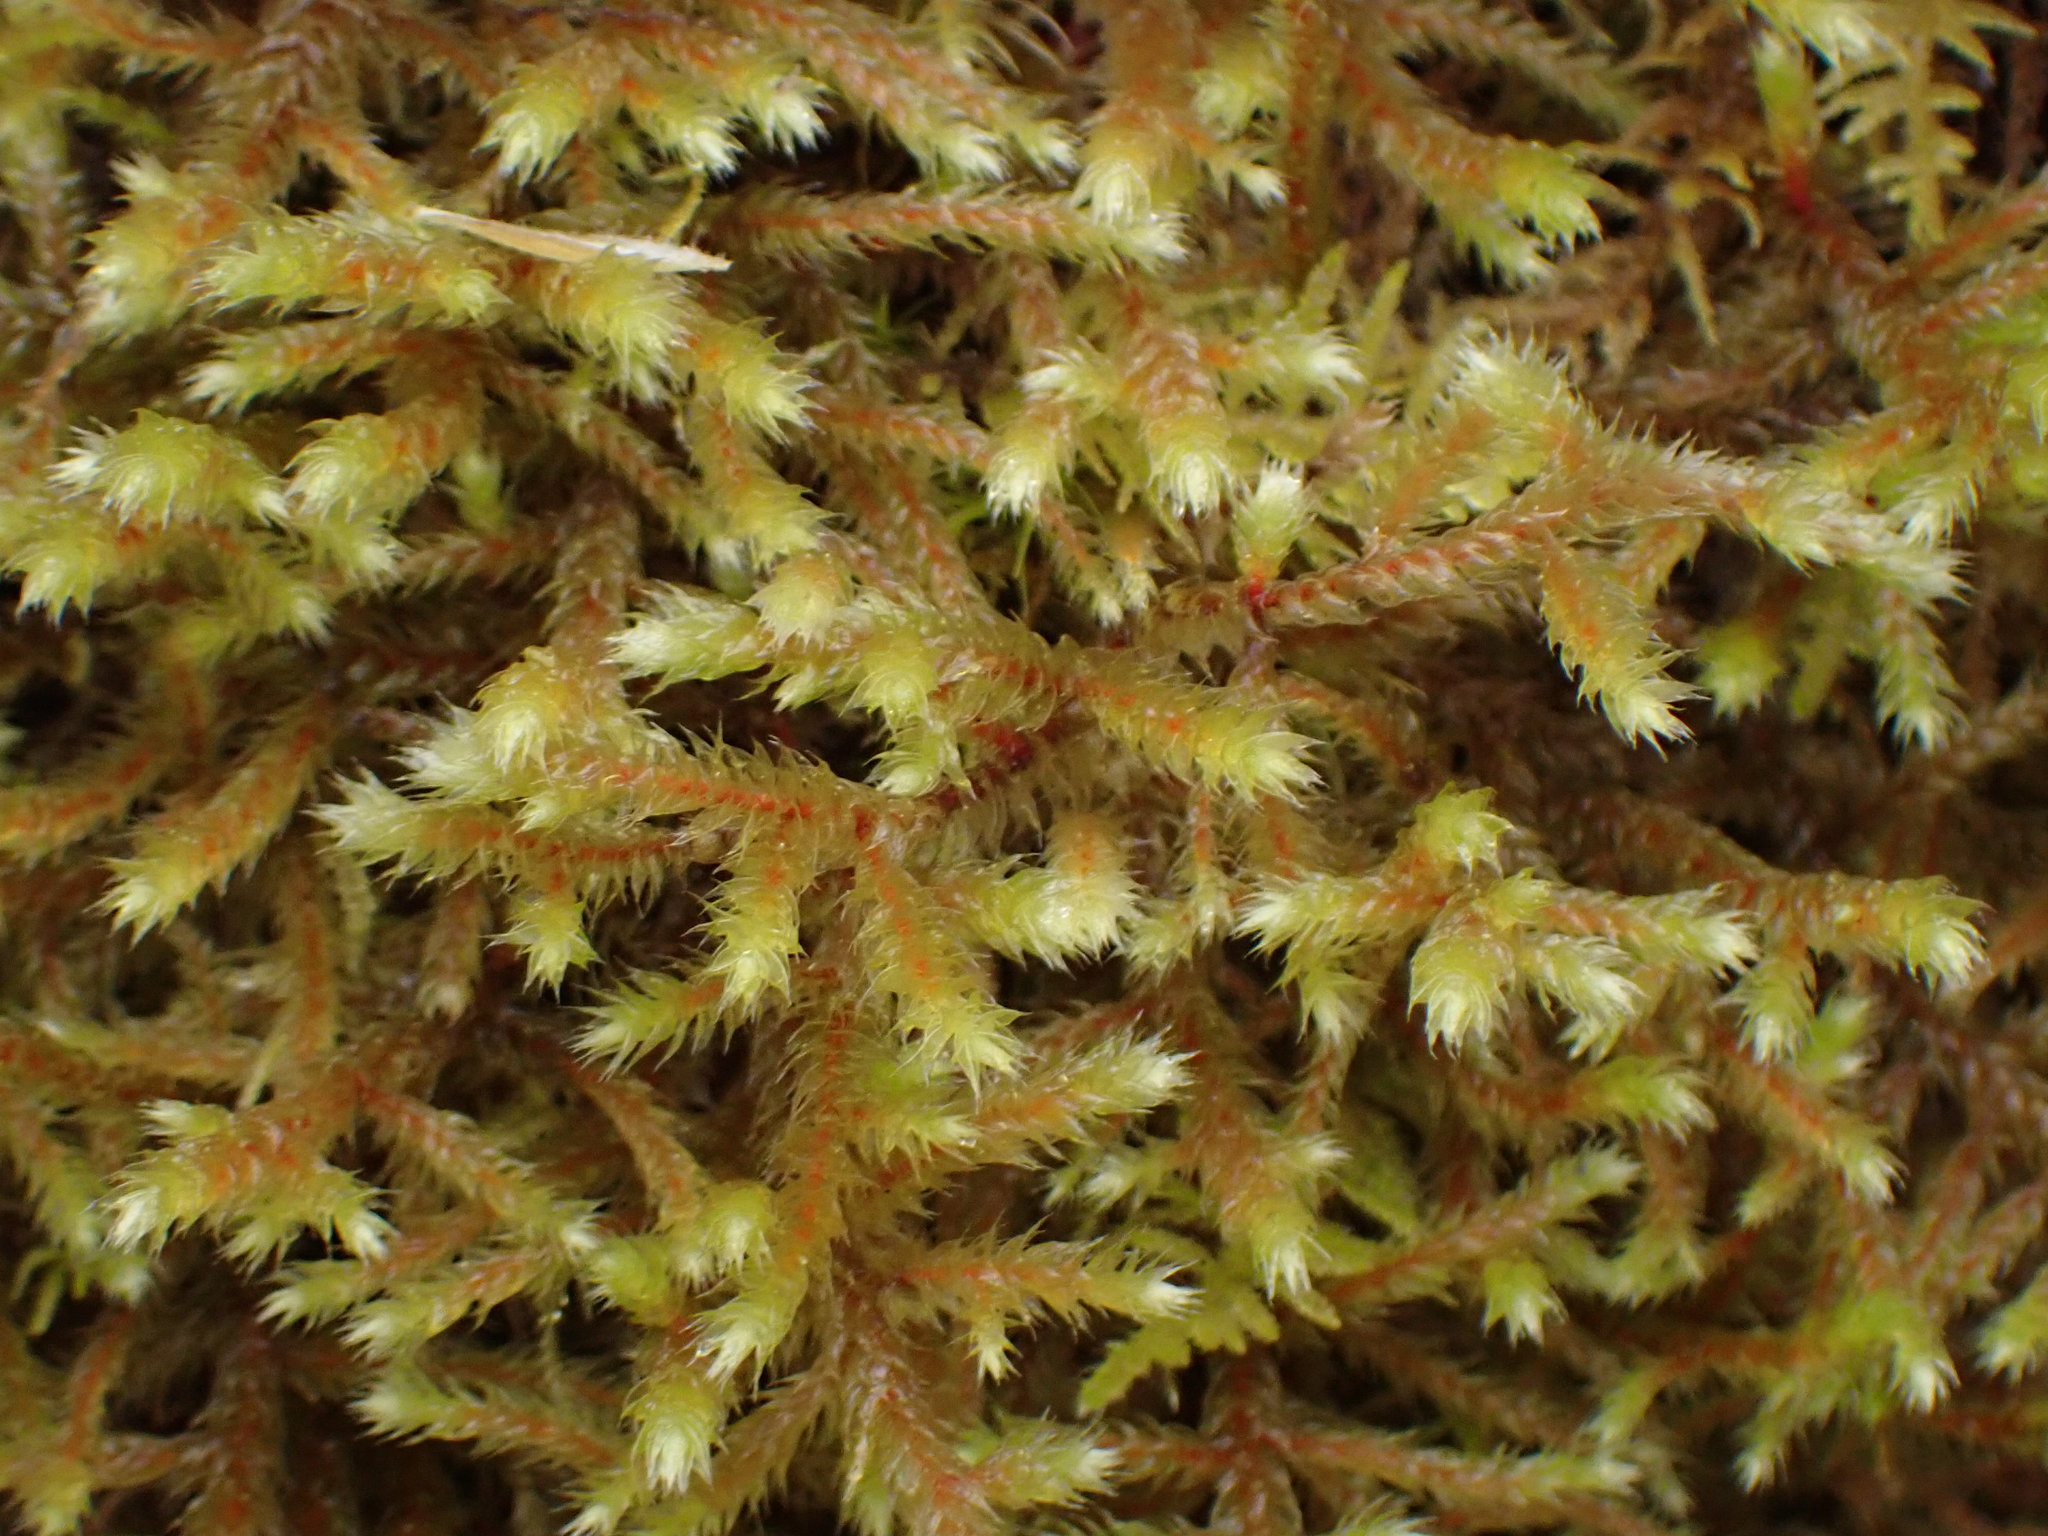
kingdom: Plantae
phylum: Bryophyta
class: Bryopsida
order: Hypnales
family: Antitrichiaceae
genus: Antitrichia
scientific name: Antitrichia curtipendula
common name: Pendulous wing-moss
